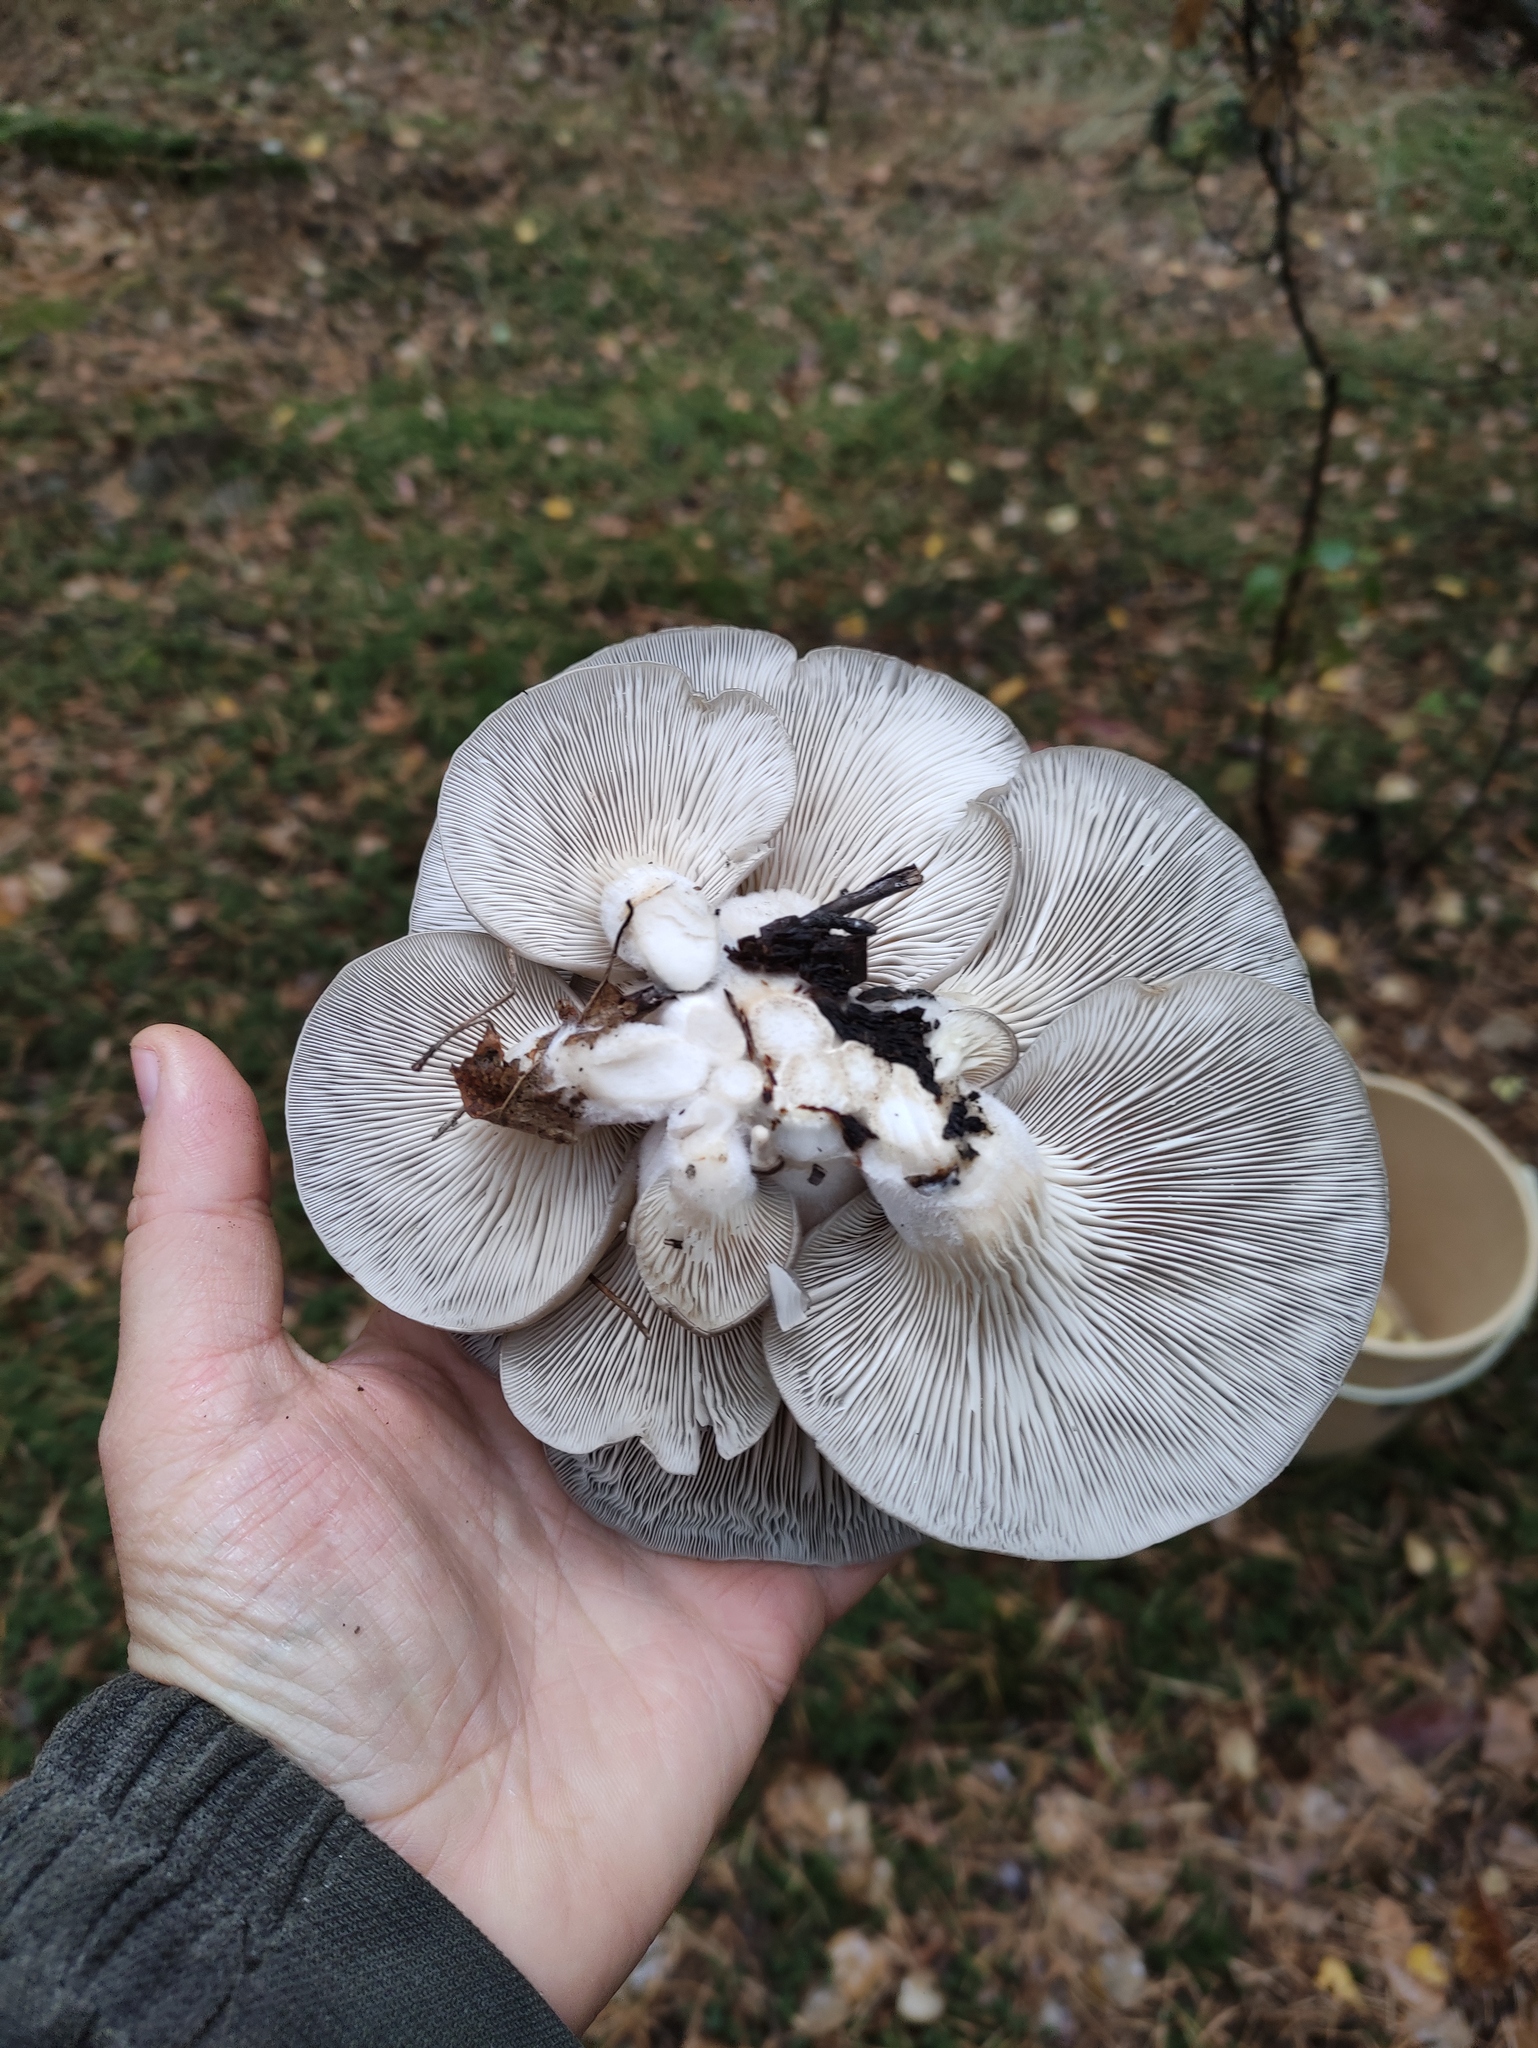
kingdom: Fungi
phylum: Basidiomycota
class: Agaricomycetes
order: Agaricales
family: Pleurotaceae
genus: Pleurotus
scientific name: Pleurotus ostreatus
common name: Oyster mushroom
